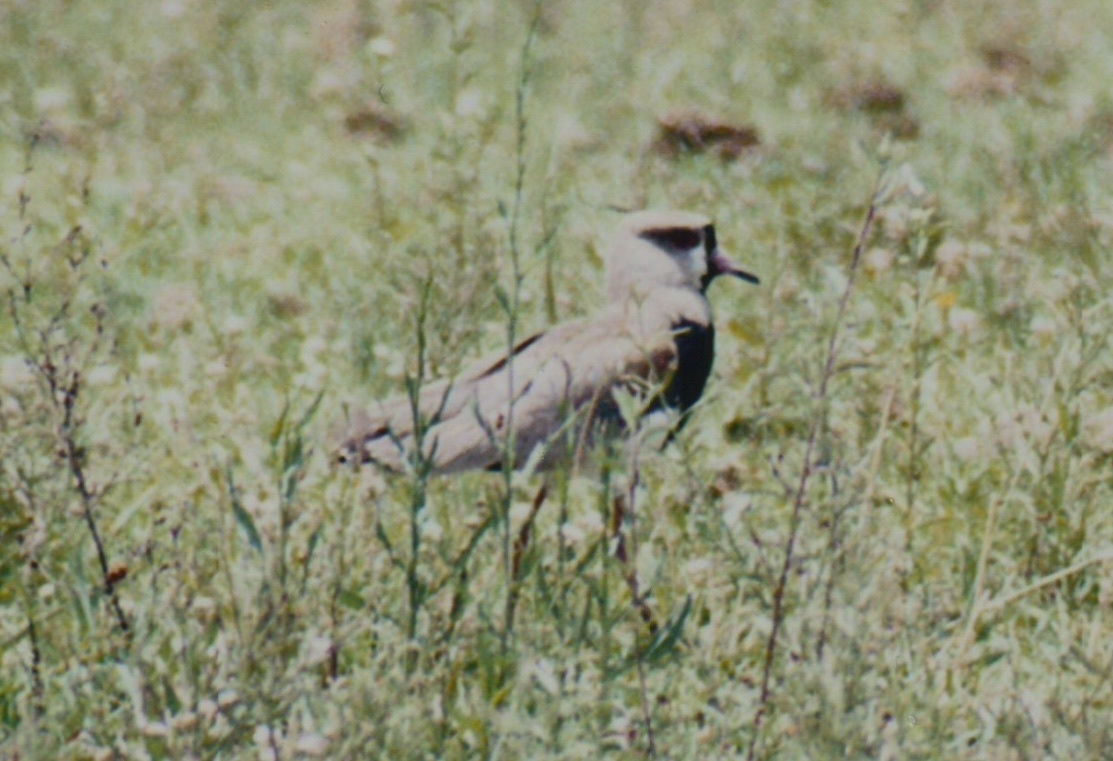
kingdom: Animalia
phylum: Chordata
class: Aves
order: Charadriiformes
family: Charadriidae
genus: Vanellus
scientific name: Vanellus chilensis
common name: Southern lapwing
